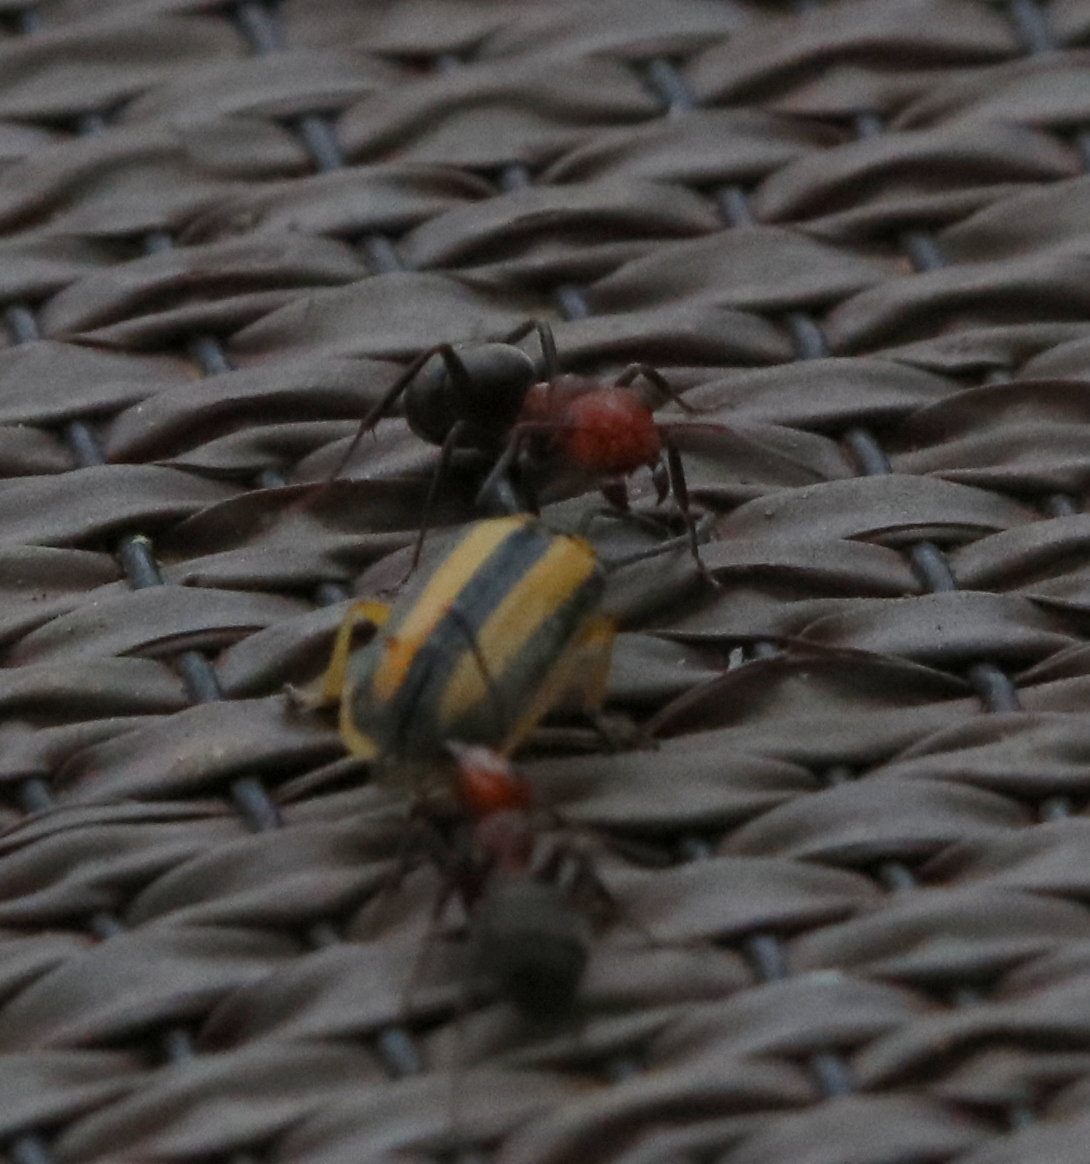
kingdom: Animalia
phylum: Arthropoda
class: Insecta
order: Hymenoptera
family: Formicidae
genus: Formica
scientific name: Formica obscuripes
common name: Western thatching ant
